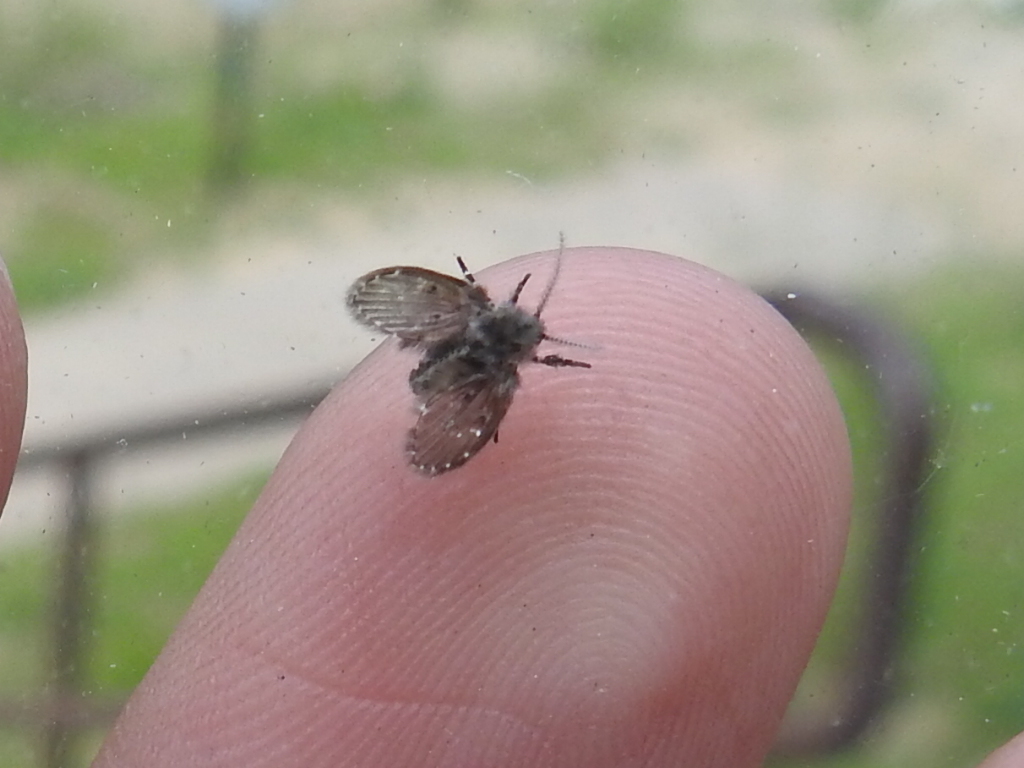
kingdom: Animalia
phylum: Arthropoda
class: Insecta
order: Diptera
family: Psychodidae
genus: Clogmia
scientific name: Clogmia albipunctatus
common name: White-spotted moth fly
